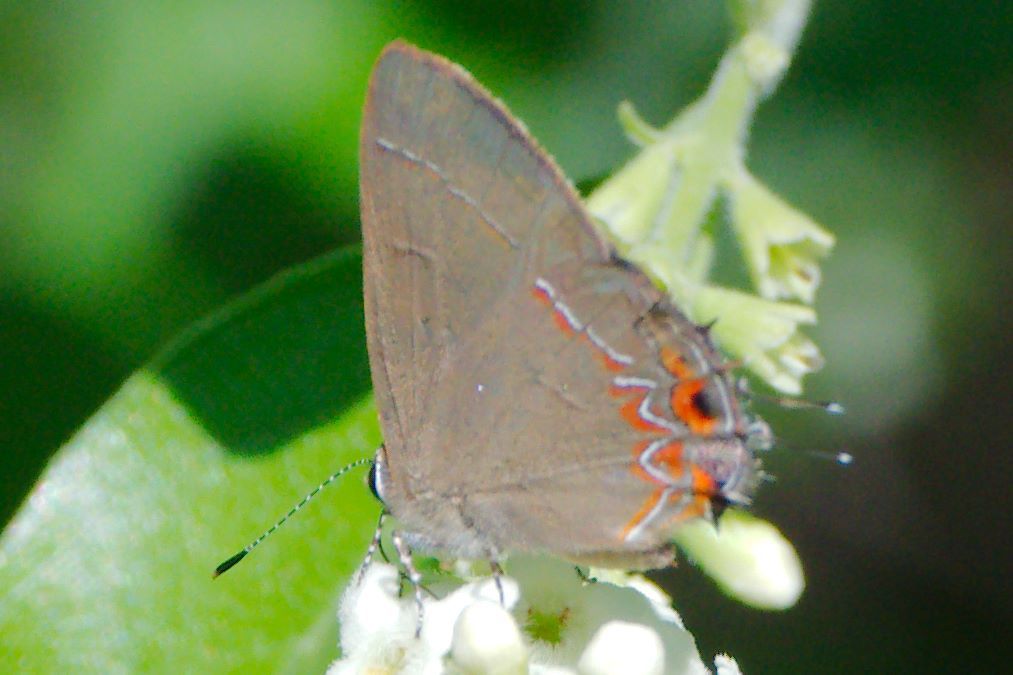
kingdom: Animalia
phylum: Arthropoda
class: Insecta
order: Lepidoptera
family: Lycaenidae
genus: Calycopis
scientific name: Calycopis isobeon
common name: Dusky-blue groundstreak
